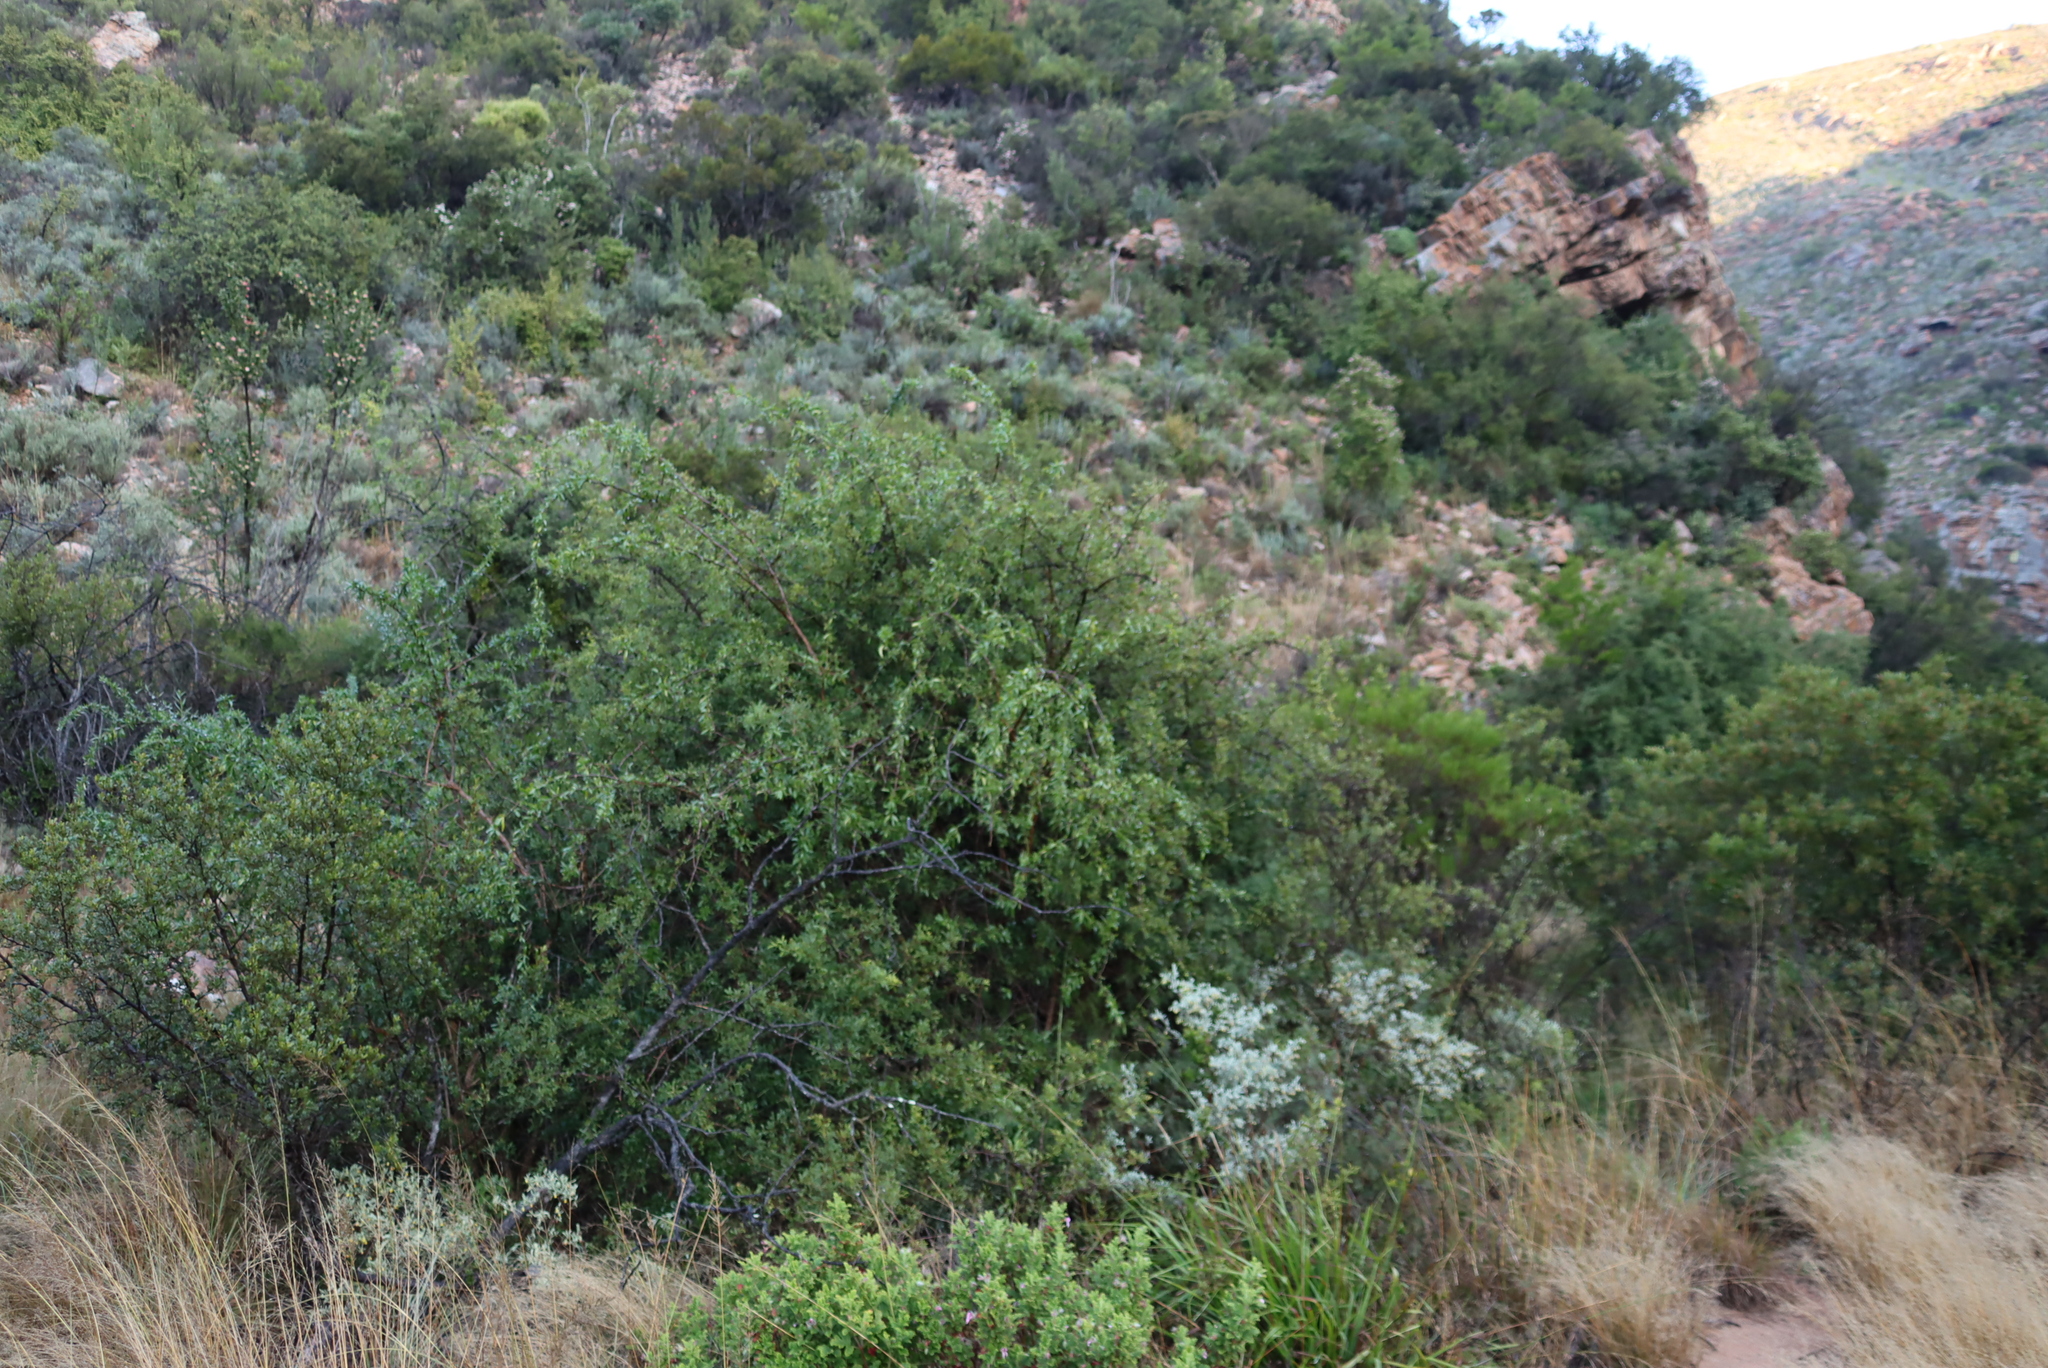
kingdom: Plantae
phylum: Tracheophyta
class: Magnoliopsida
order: Solanales
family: Solanaceae
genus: Lycium
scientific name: Lycium oxycarpum
